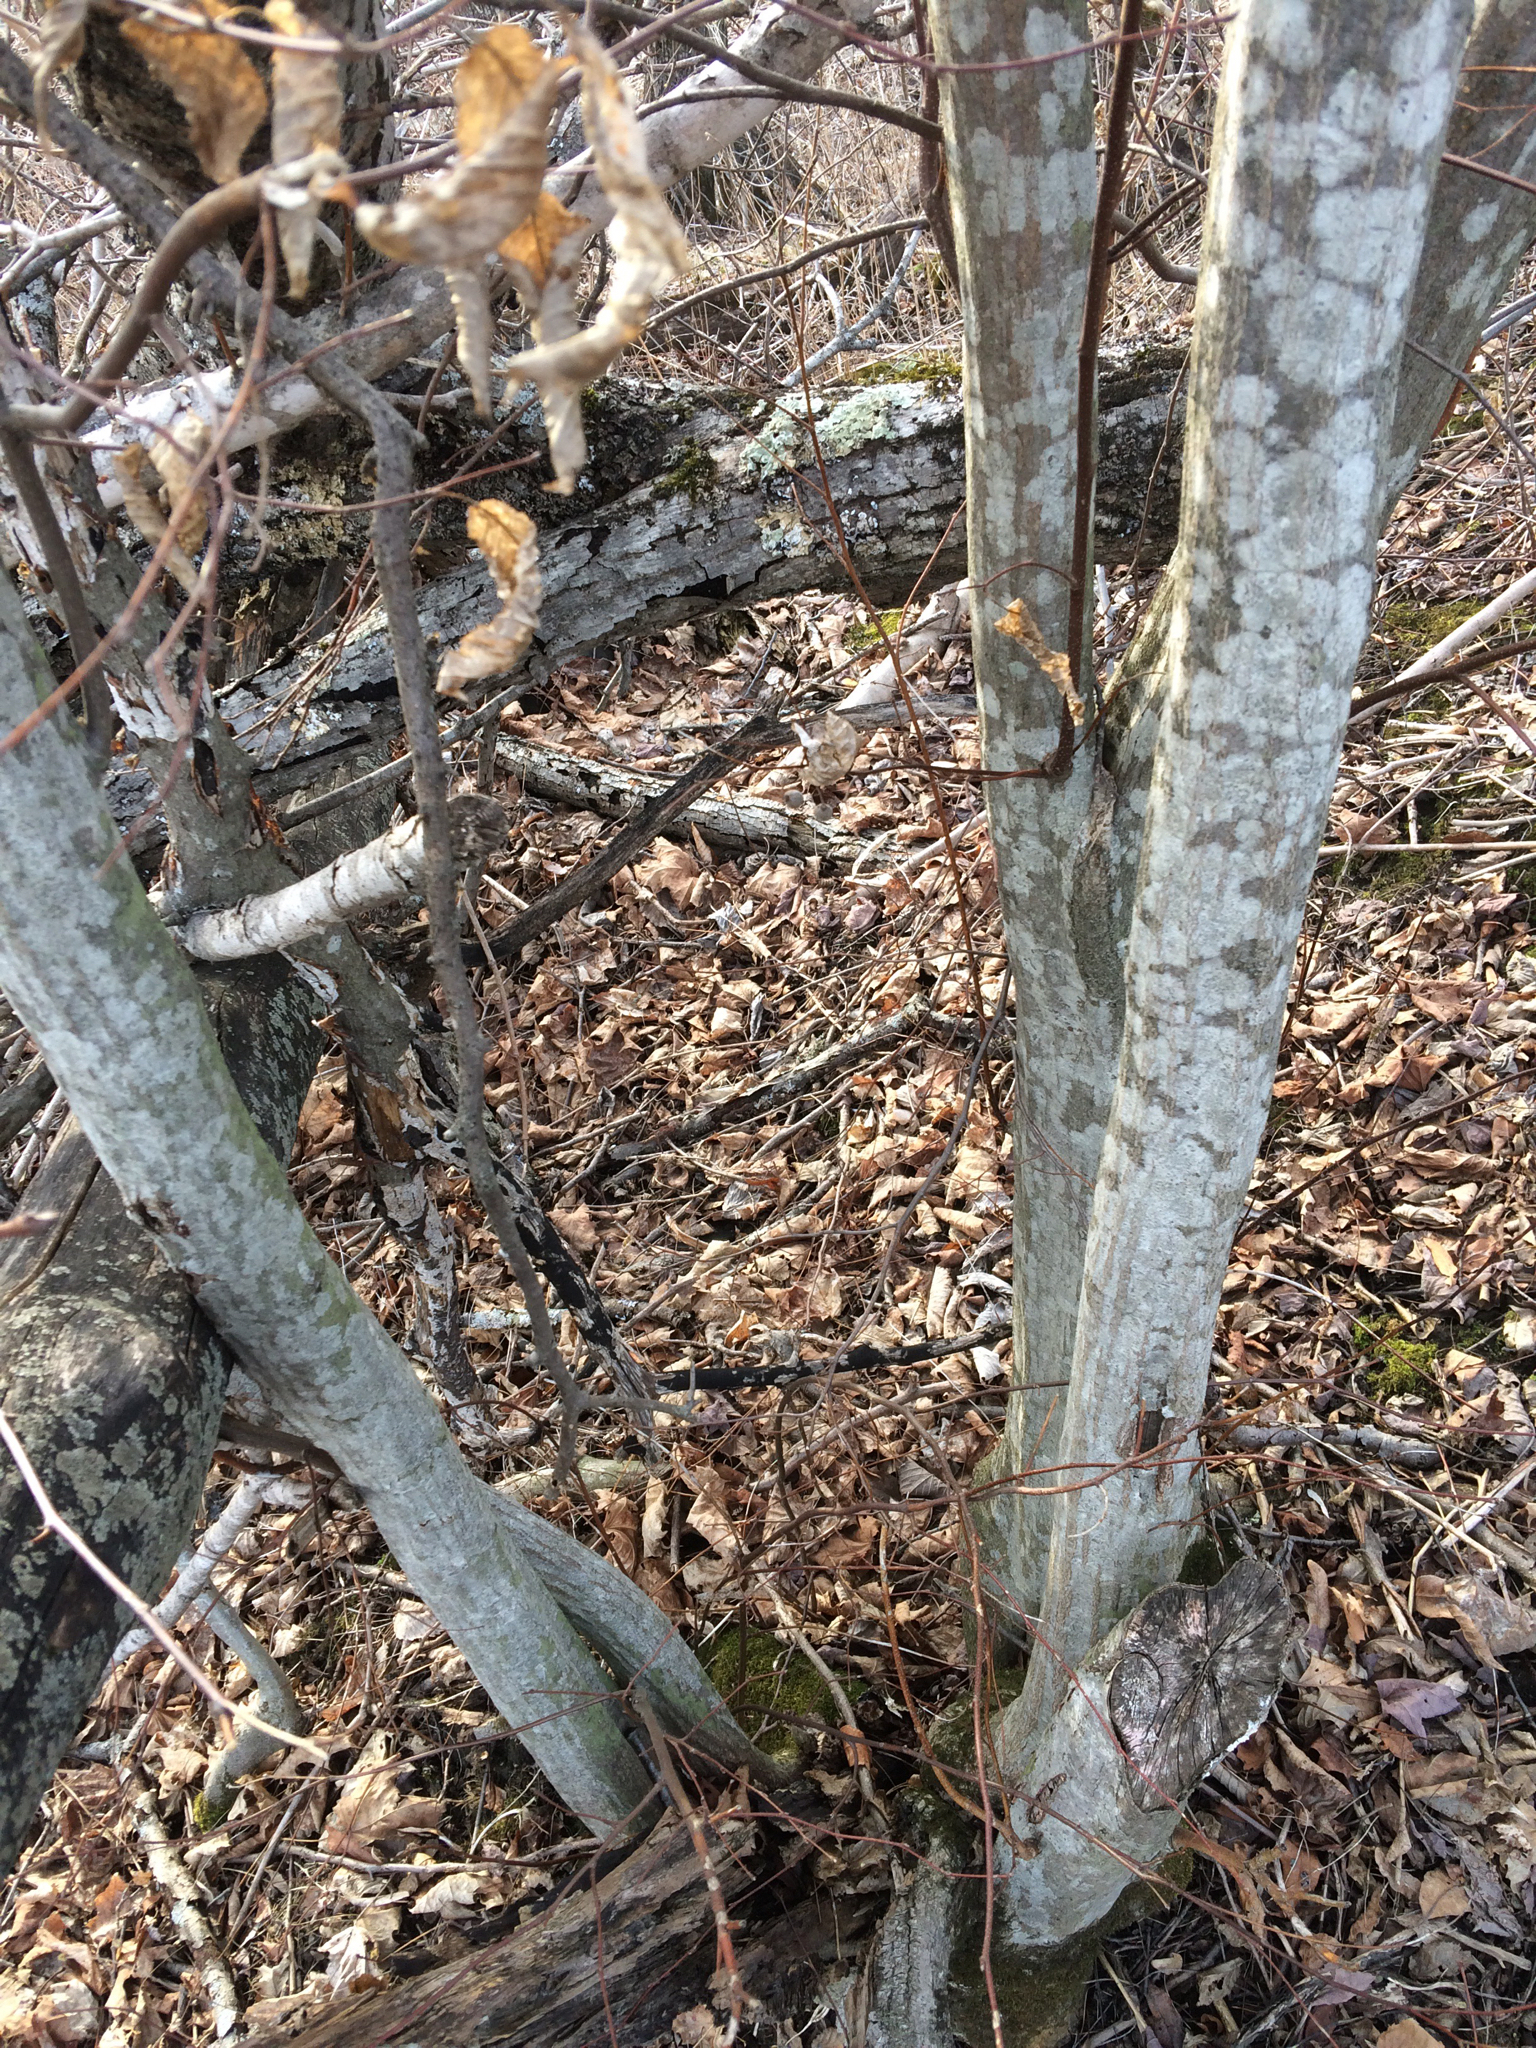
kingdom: Plantae
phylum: Tracheophyta
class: Magnoliopsida
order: Fagales
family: Betulaceae
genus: Carpinus
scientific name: Carpinus caroliniana
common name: American hornbeam
